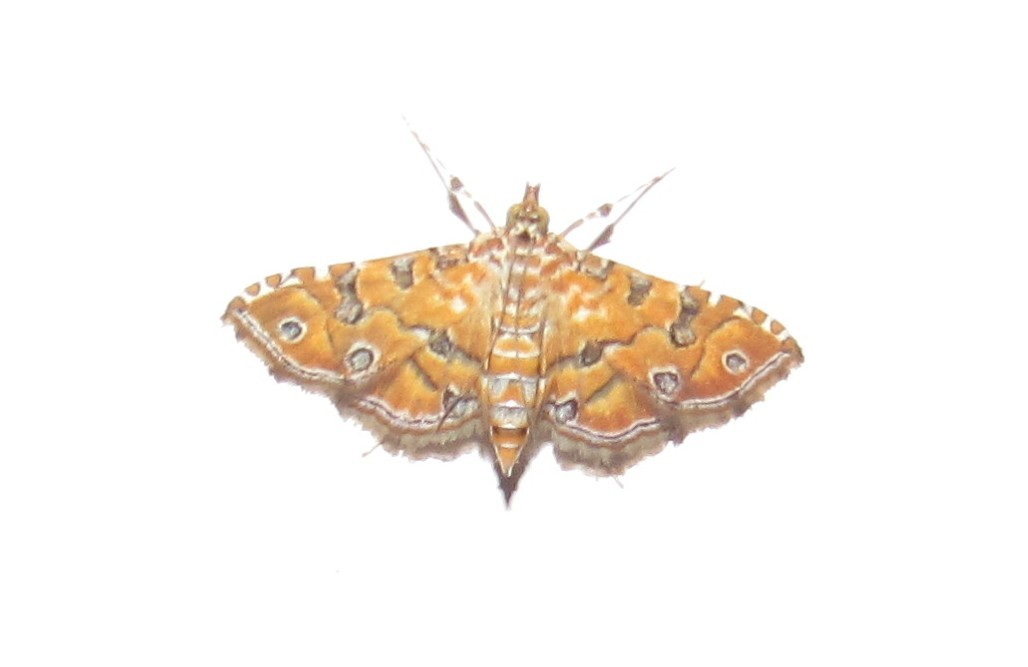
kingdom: Animalia
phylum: Arthropoda
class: Insecta
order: Lepidoptera
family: Crambidae
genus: Ommatospila
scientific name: Ommatospila narcaeusalis
